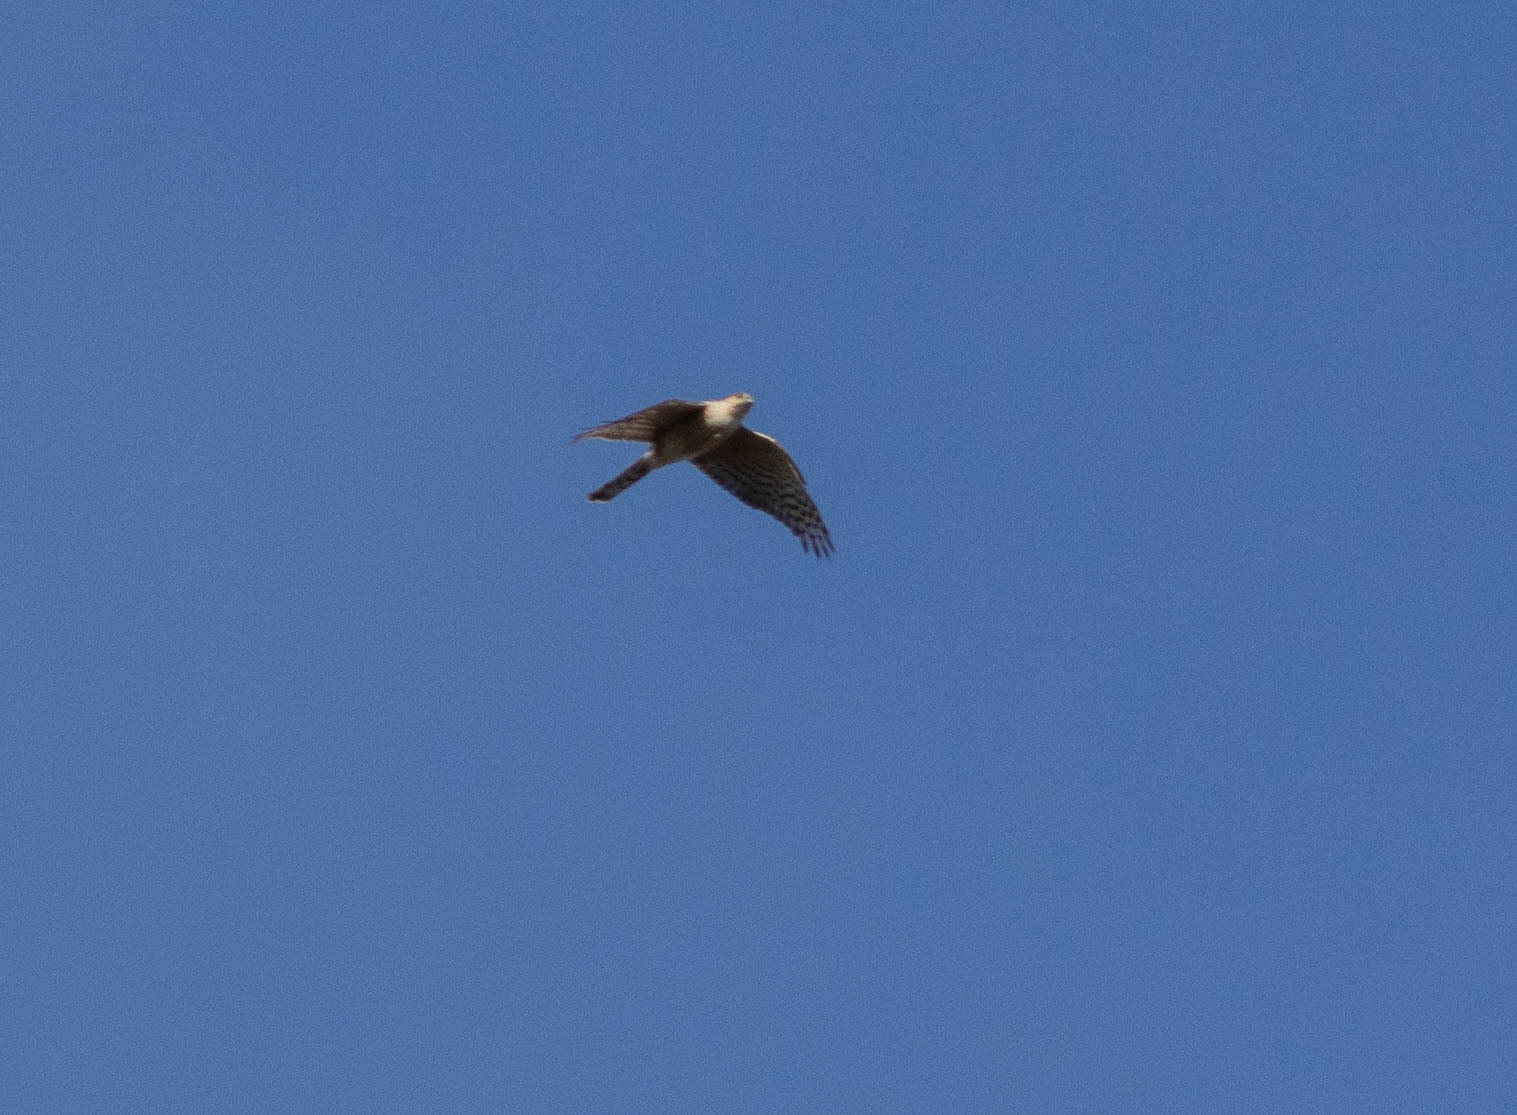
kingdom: Animalia
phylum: Chordata
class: Aves
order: Accipitriformes
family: Accipitridae
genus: Accipiter
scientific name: Accipiter striatus
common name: Sharp-shinned hawk
